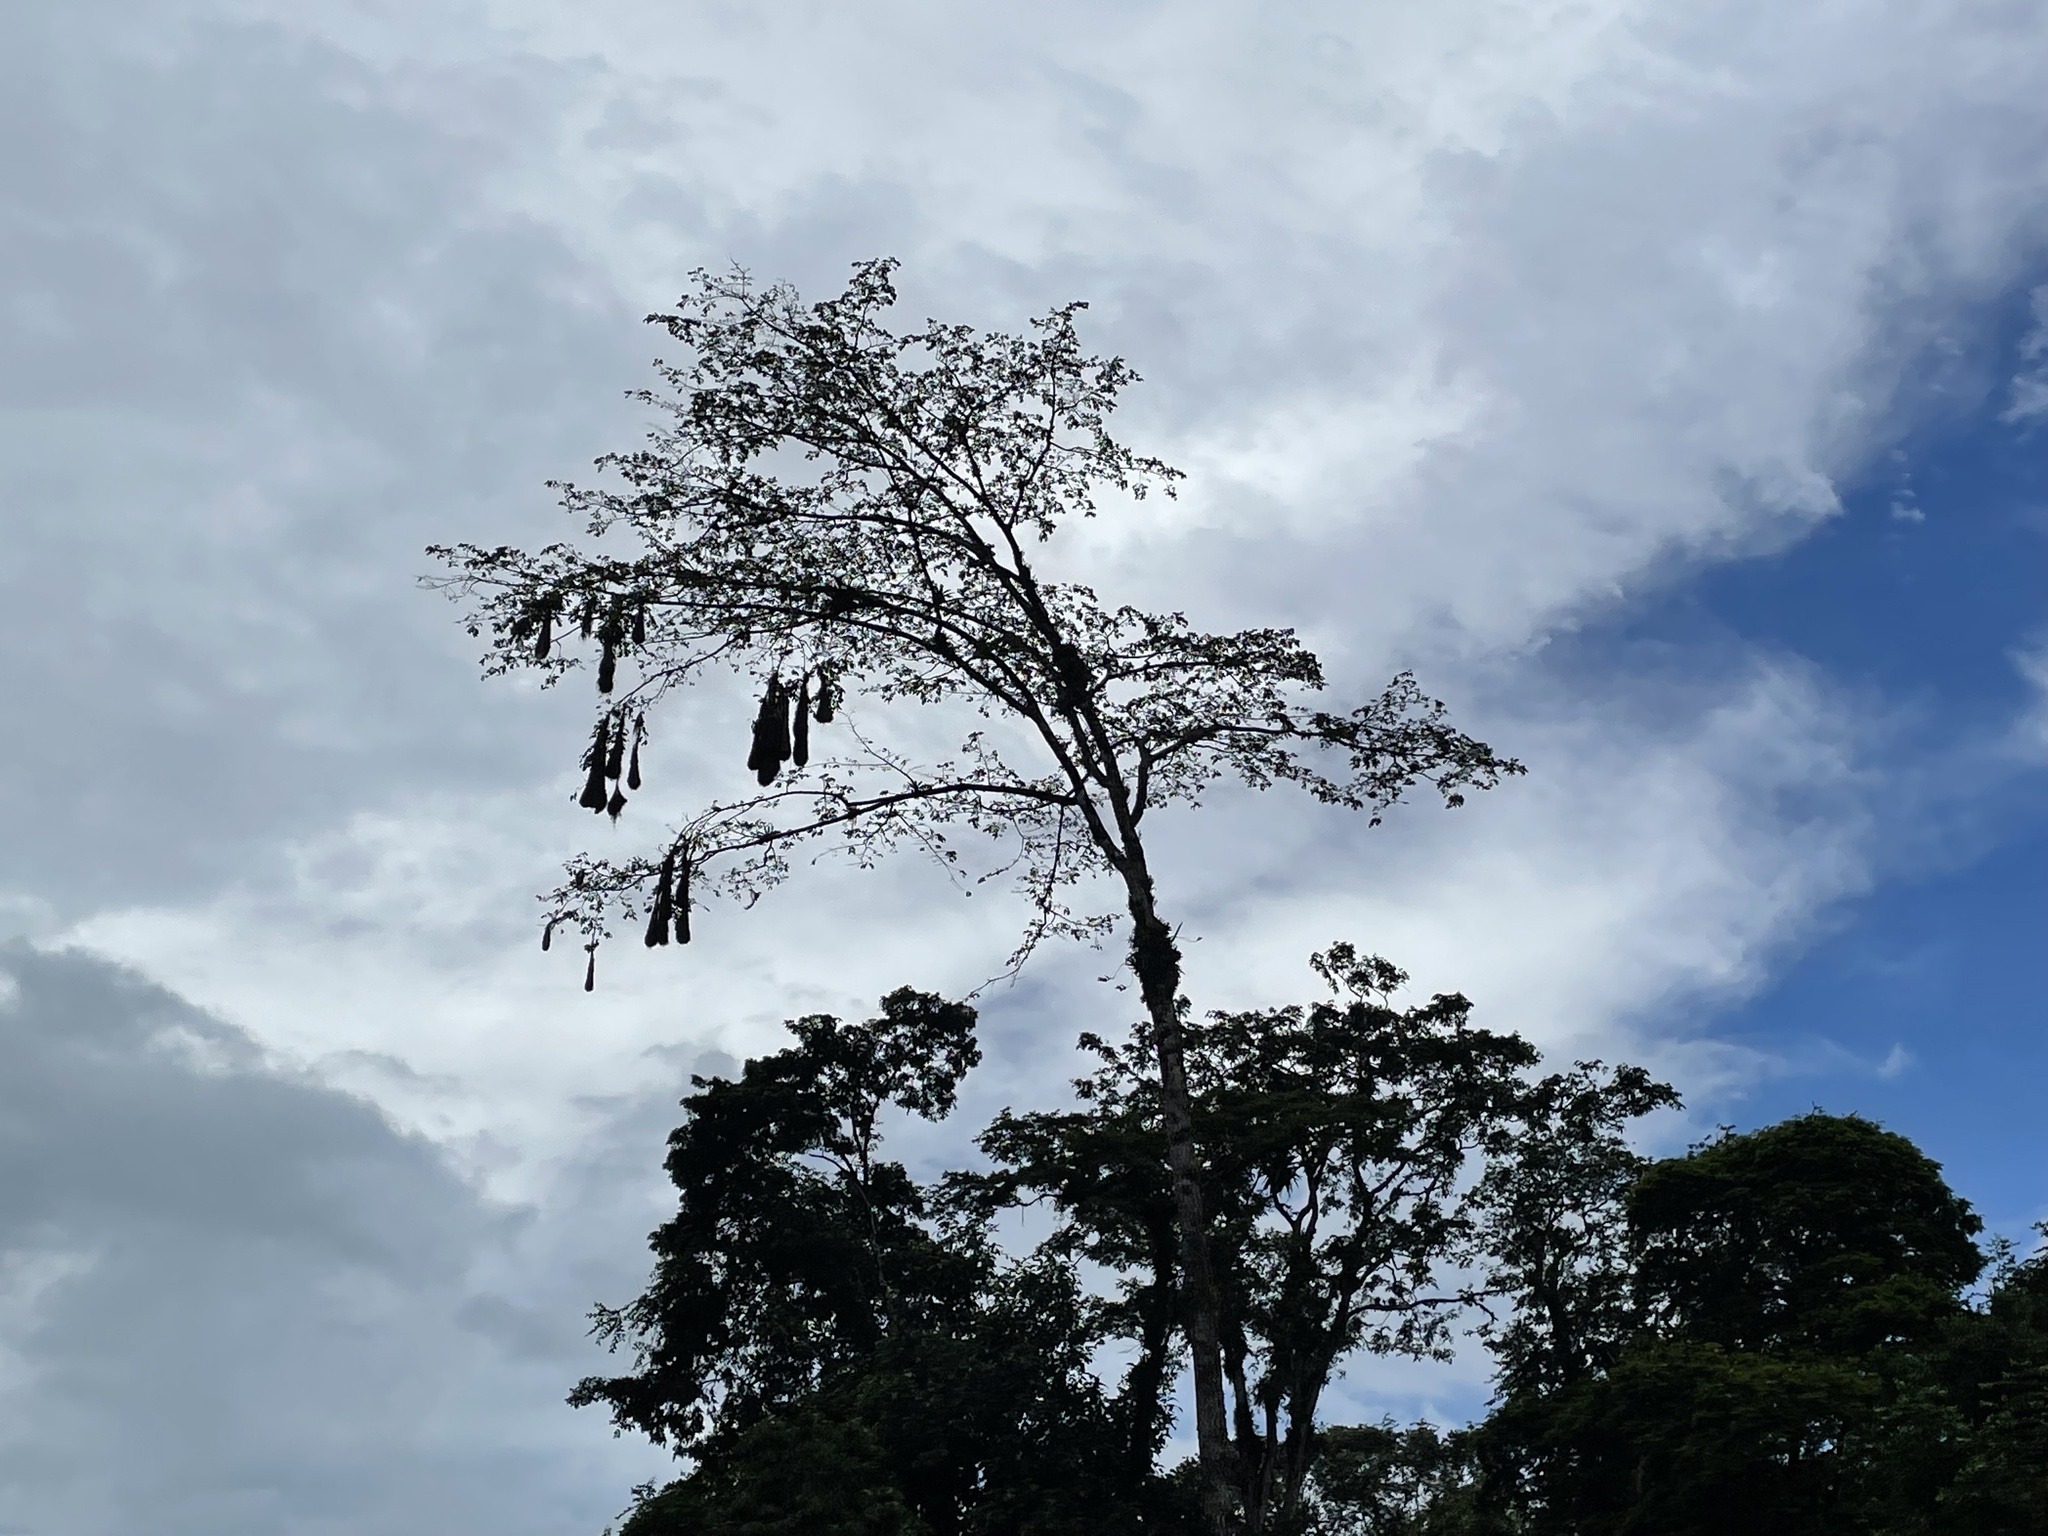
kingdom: Animalia
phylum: Chordata
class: Aves
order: Passeriformes
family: Icteridae
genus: Psarocolius
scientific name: Psarocolius montezuma
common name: Montezuma oropendola
